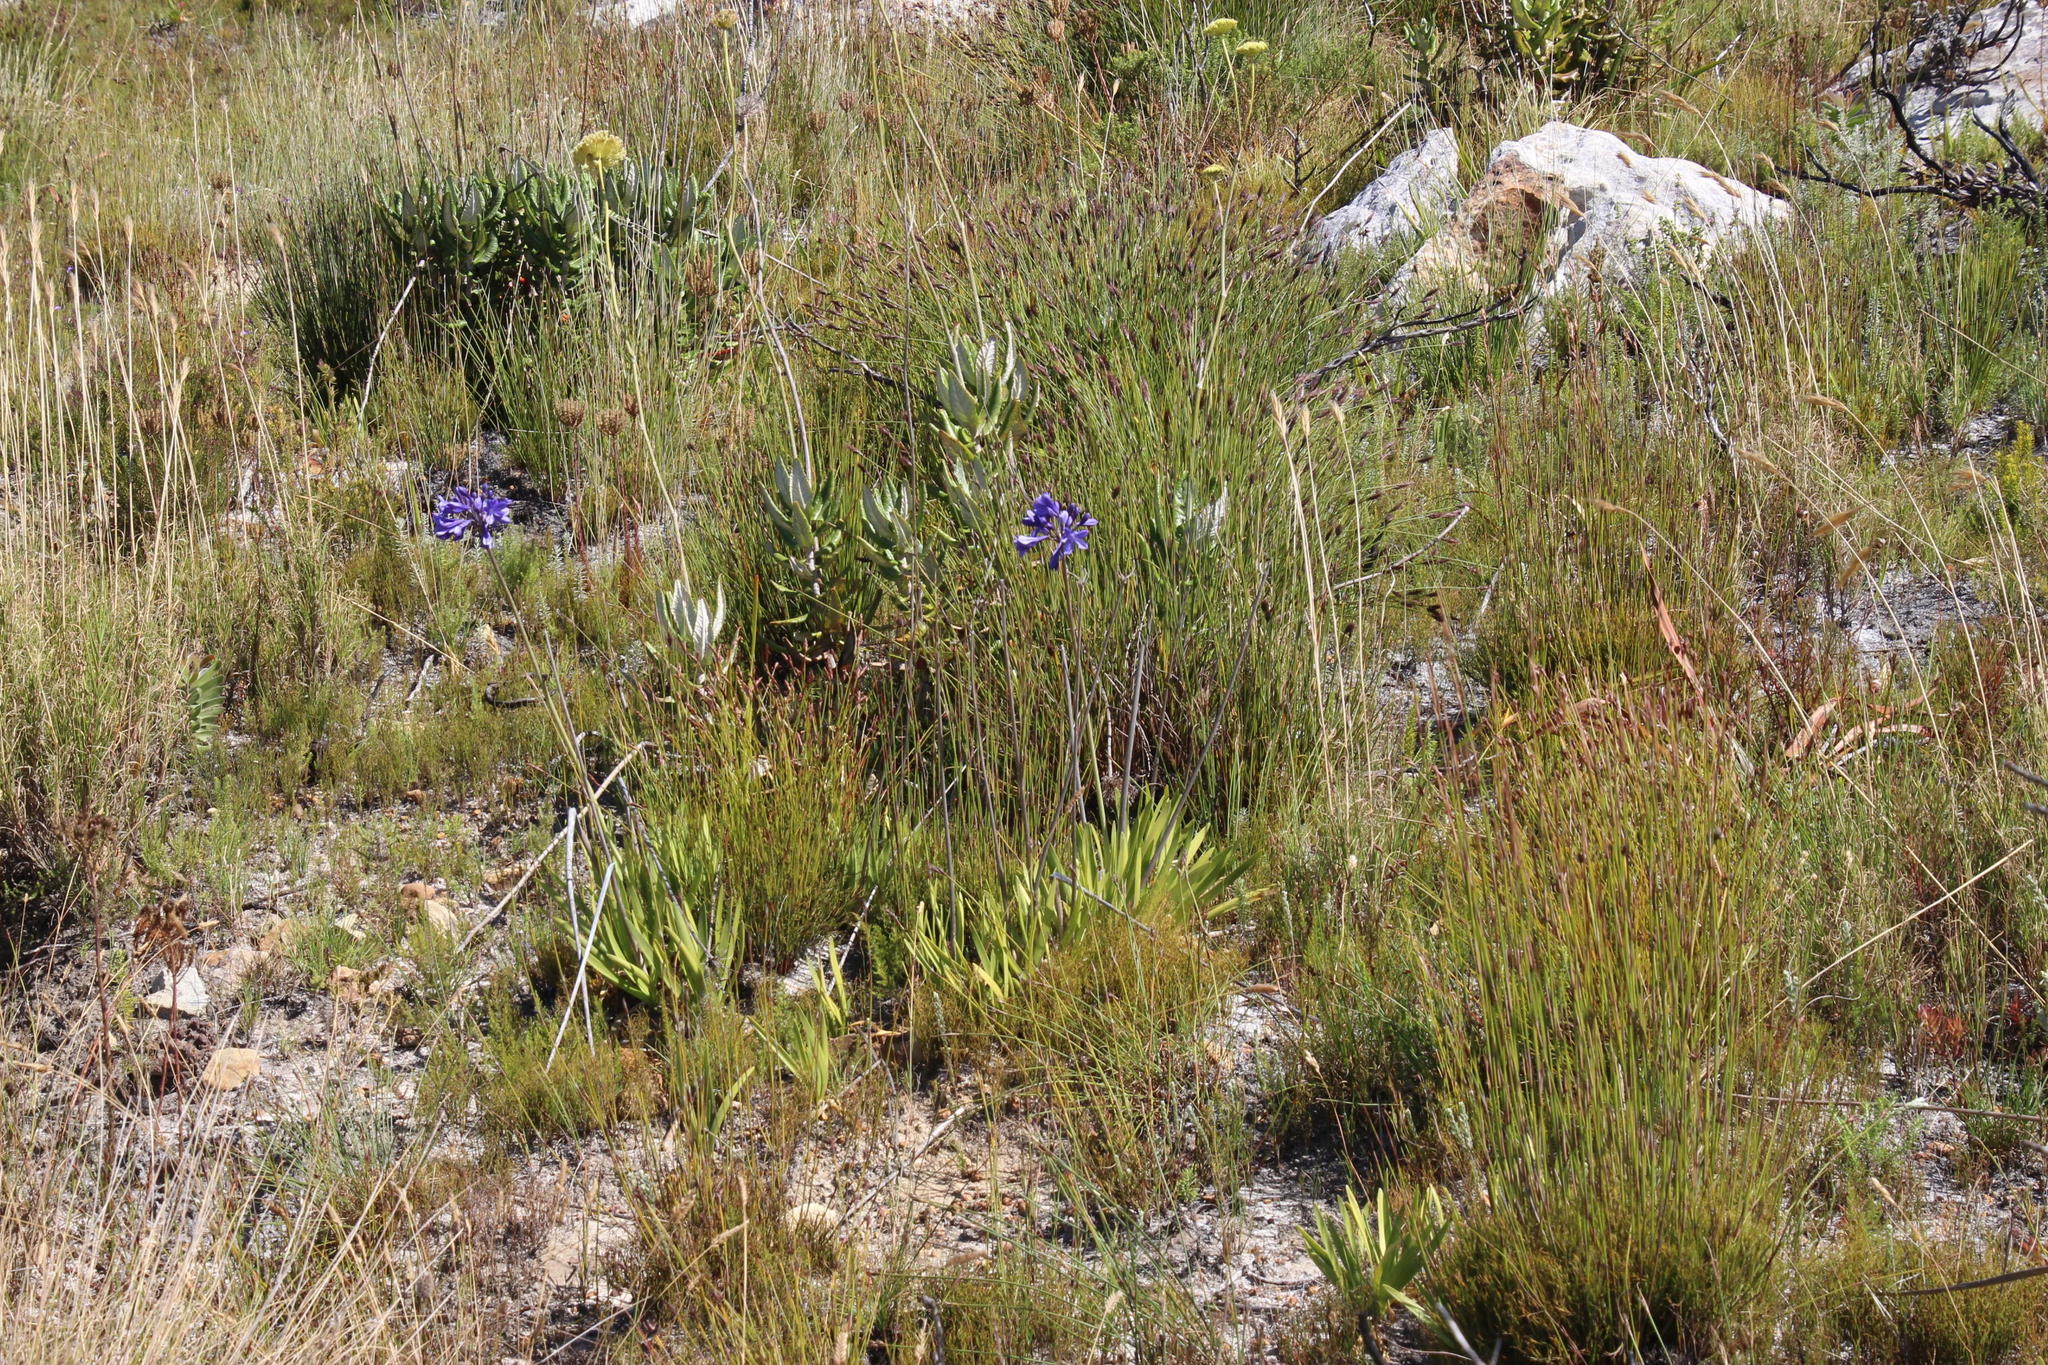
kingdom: Plantae
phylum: Tracheophyta
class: Liliopsida
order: Asparagales
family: Amaryllidaceae
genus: Agapanthus
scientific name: Agapanthus africanus
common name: Lily-of-the-nile
